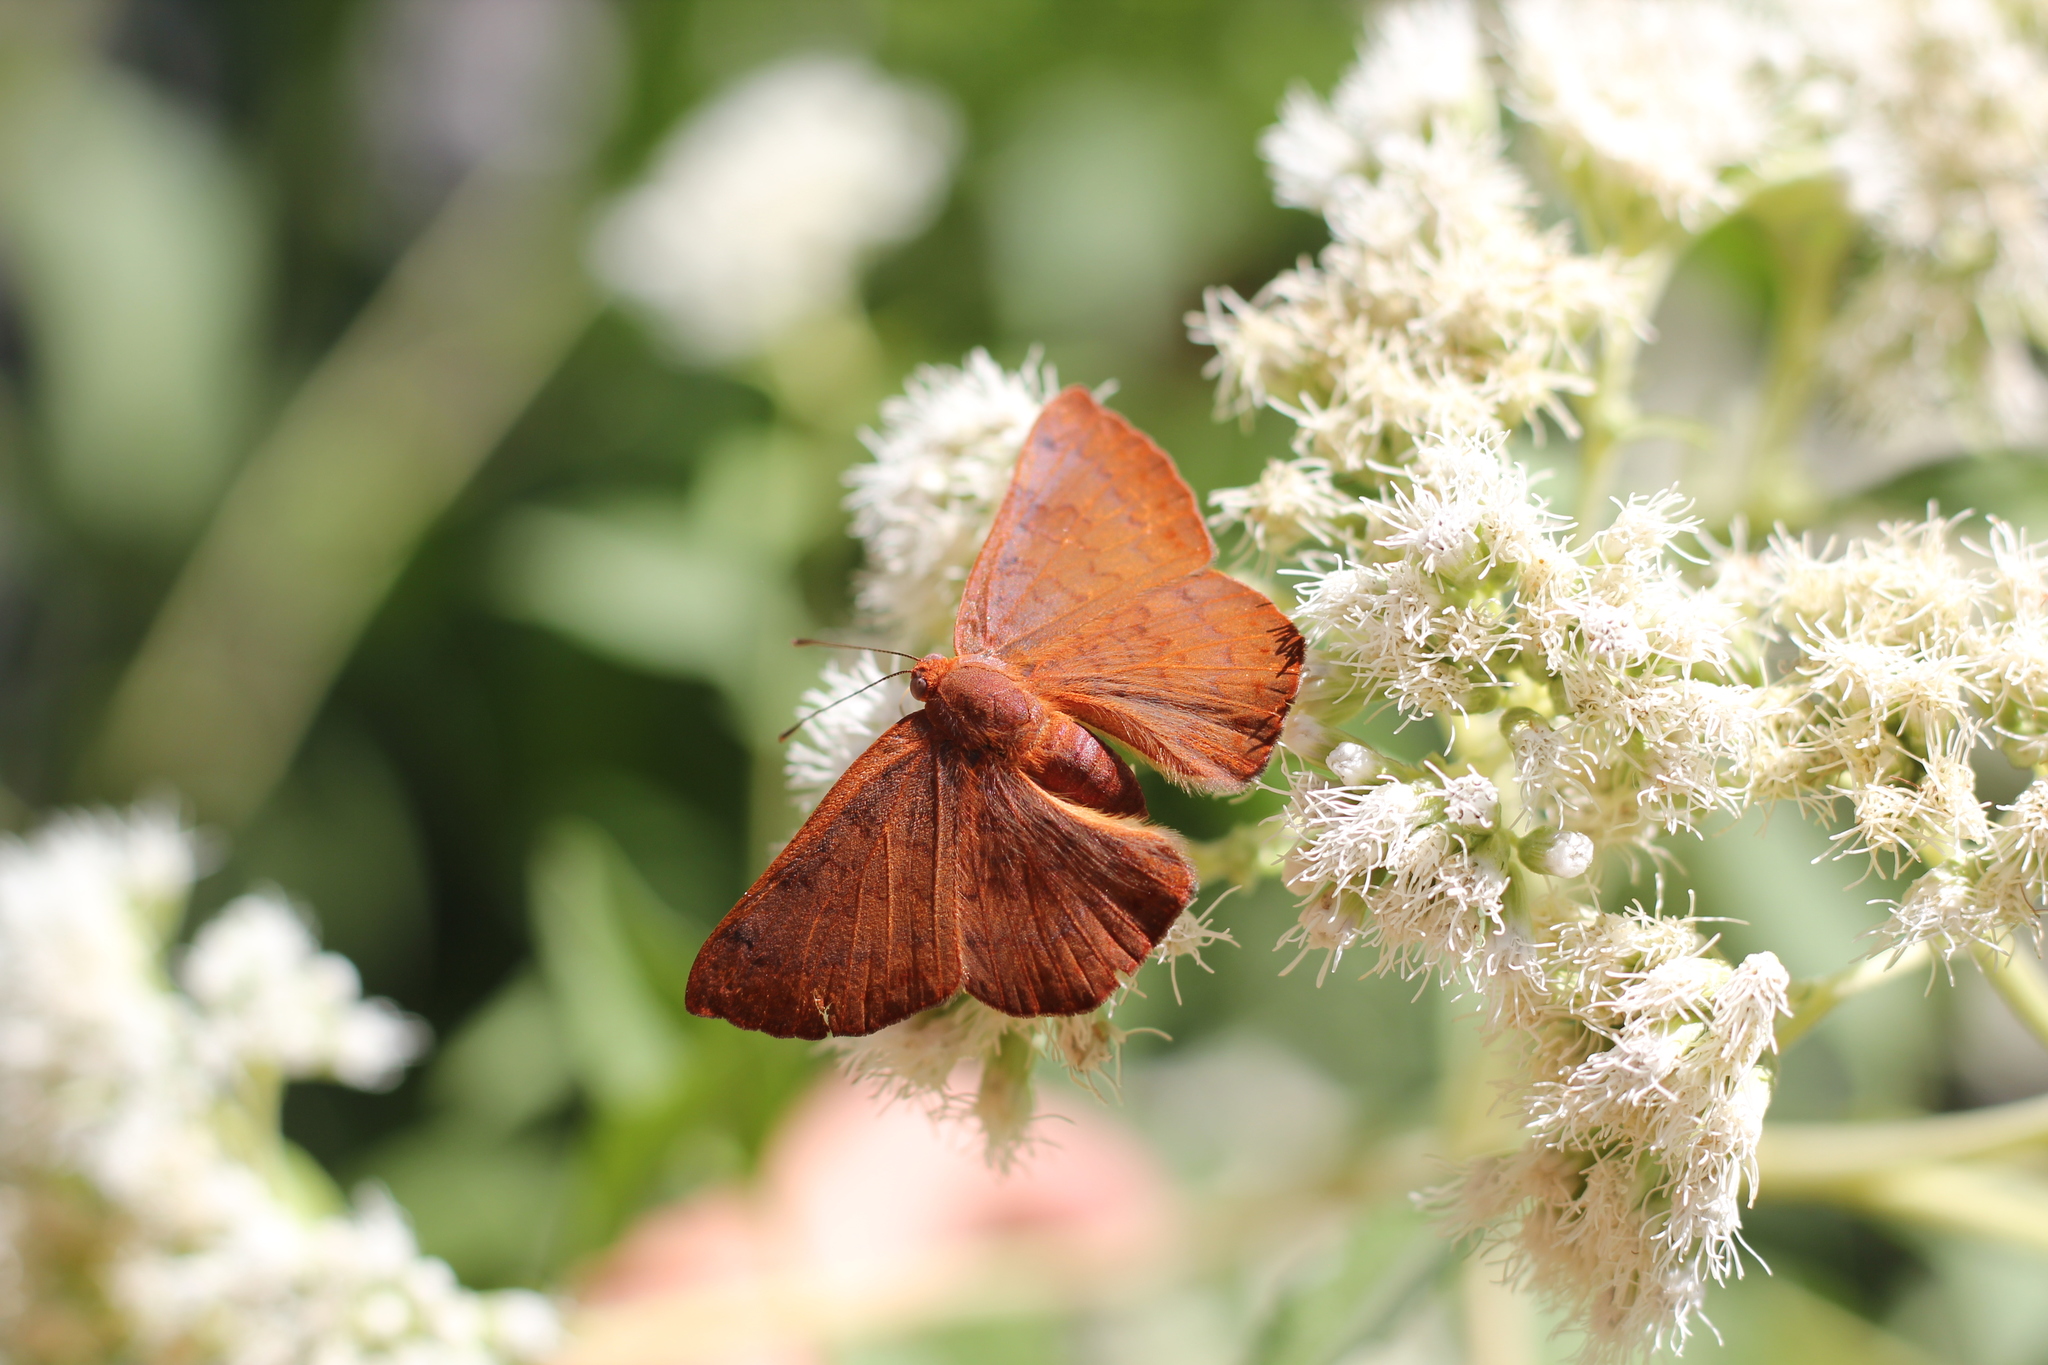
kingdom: Animalia
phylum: Arthropoda
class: Insecta
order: Lepidoptera
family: Lycaenidae
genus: Emesis
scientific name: Emesis russula
